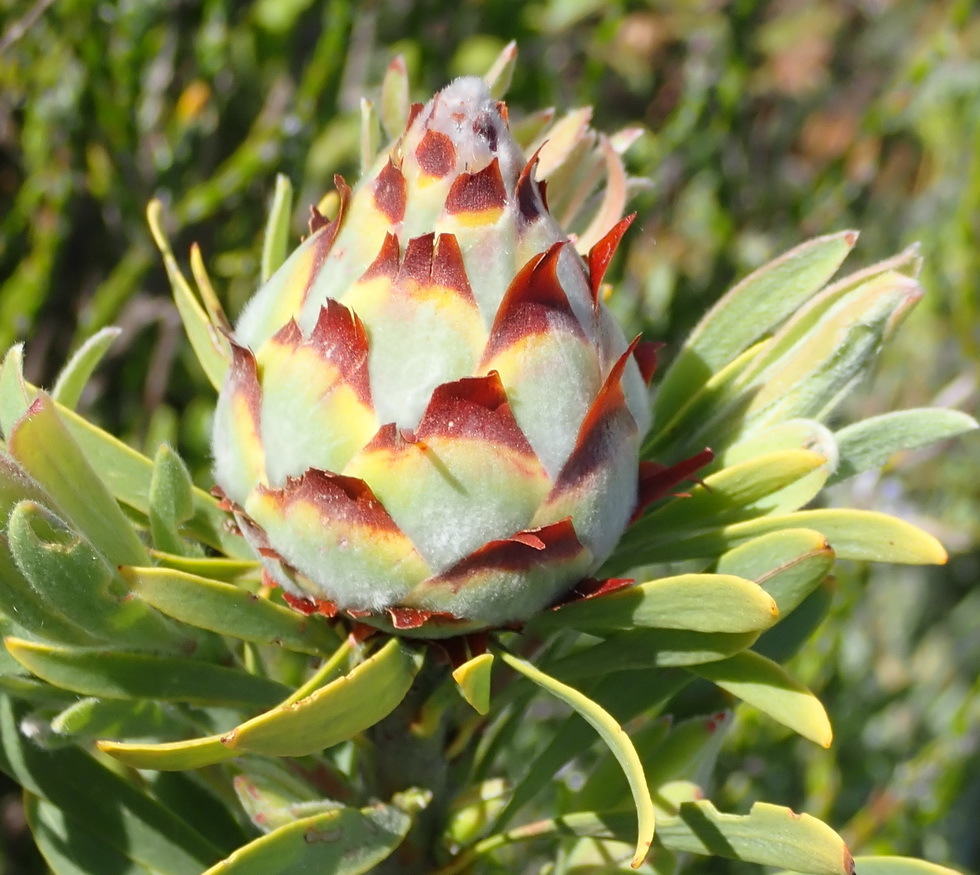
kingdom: Plantae
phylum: Tracheophyta
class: Magnoliopsida
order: Proteales
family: Proteaceae
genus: Leucadendron
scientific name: Leucadendron rubrum
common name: Spinning top
